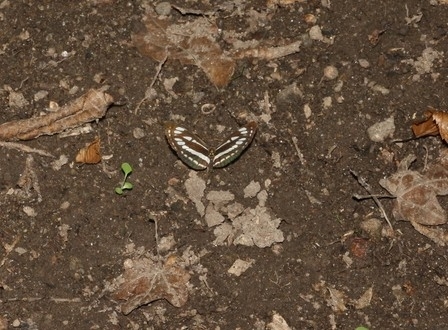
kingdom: Animalia
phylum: Arthropoda
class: Insecta
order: Lepidoptera
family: Nymphalidae
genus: Neptis
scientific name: Neptis sappho
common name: Common glider
